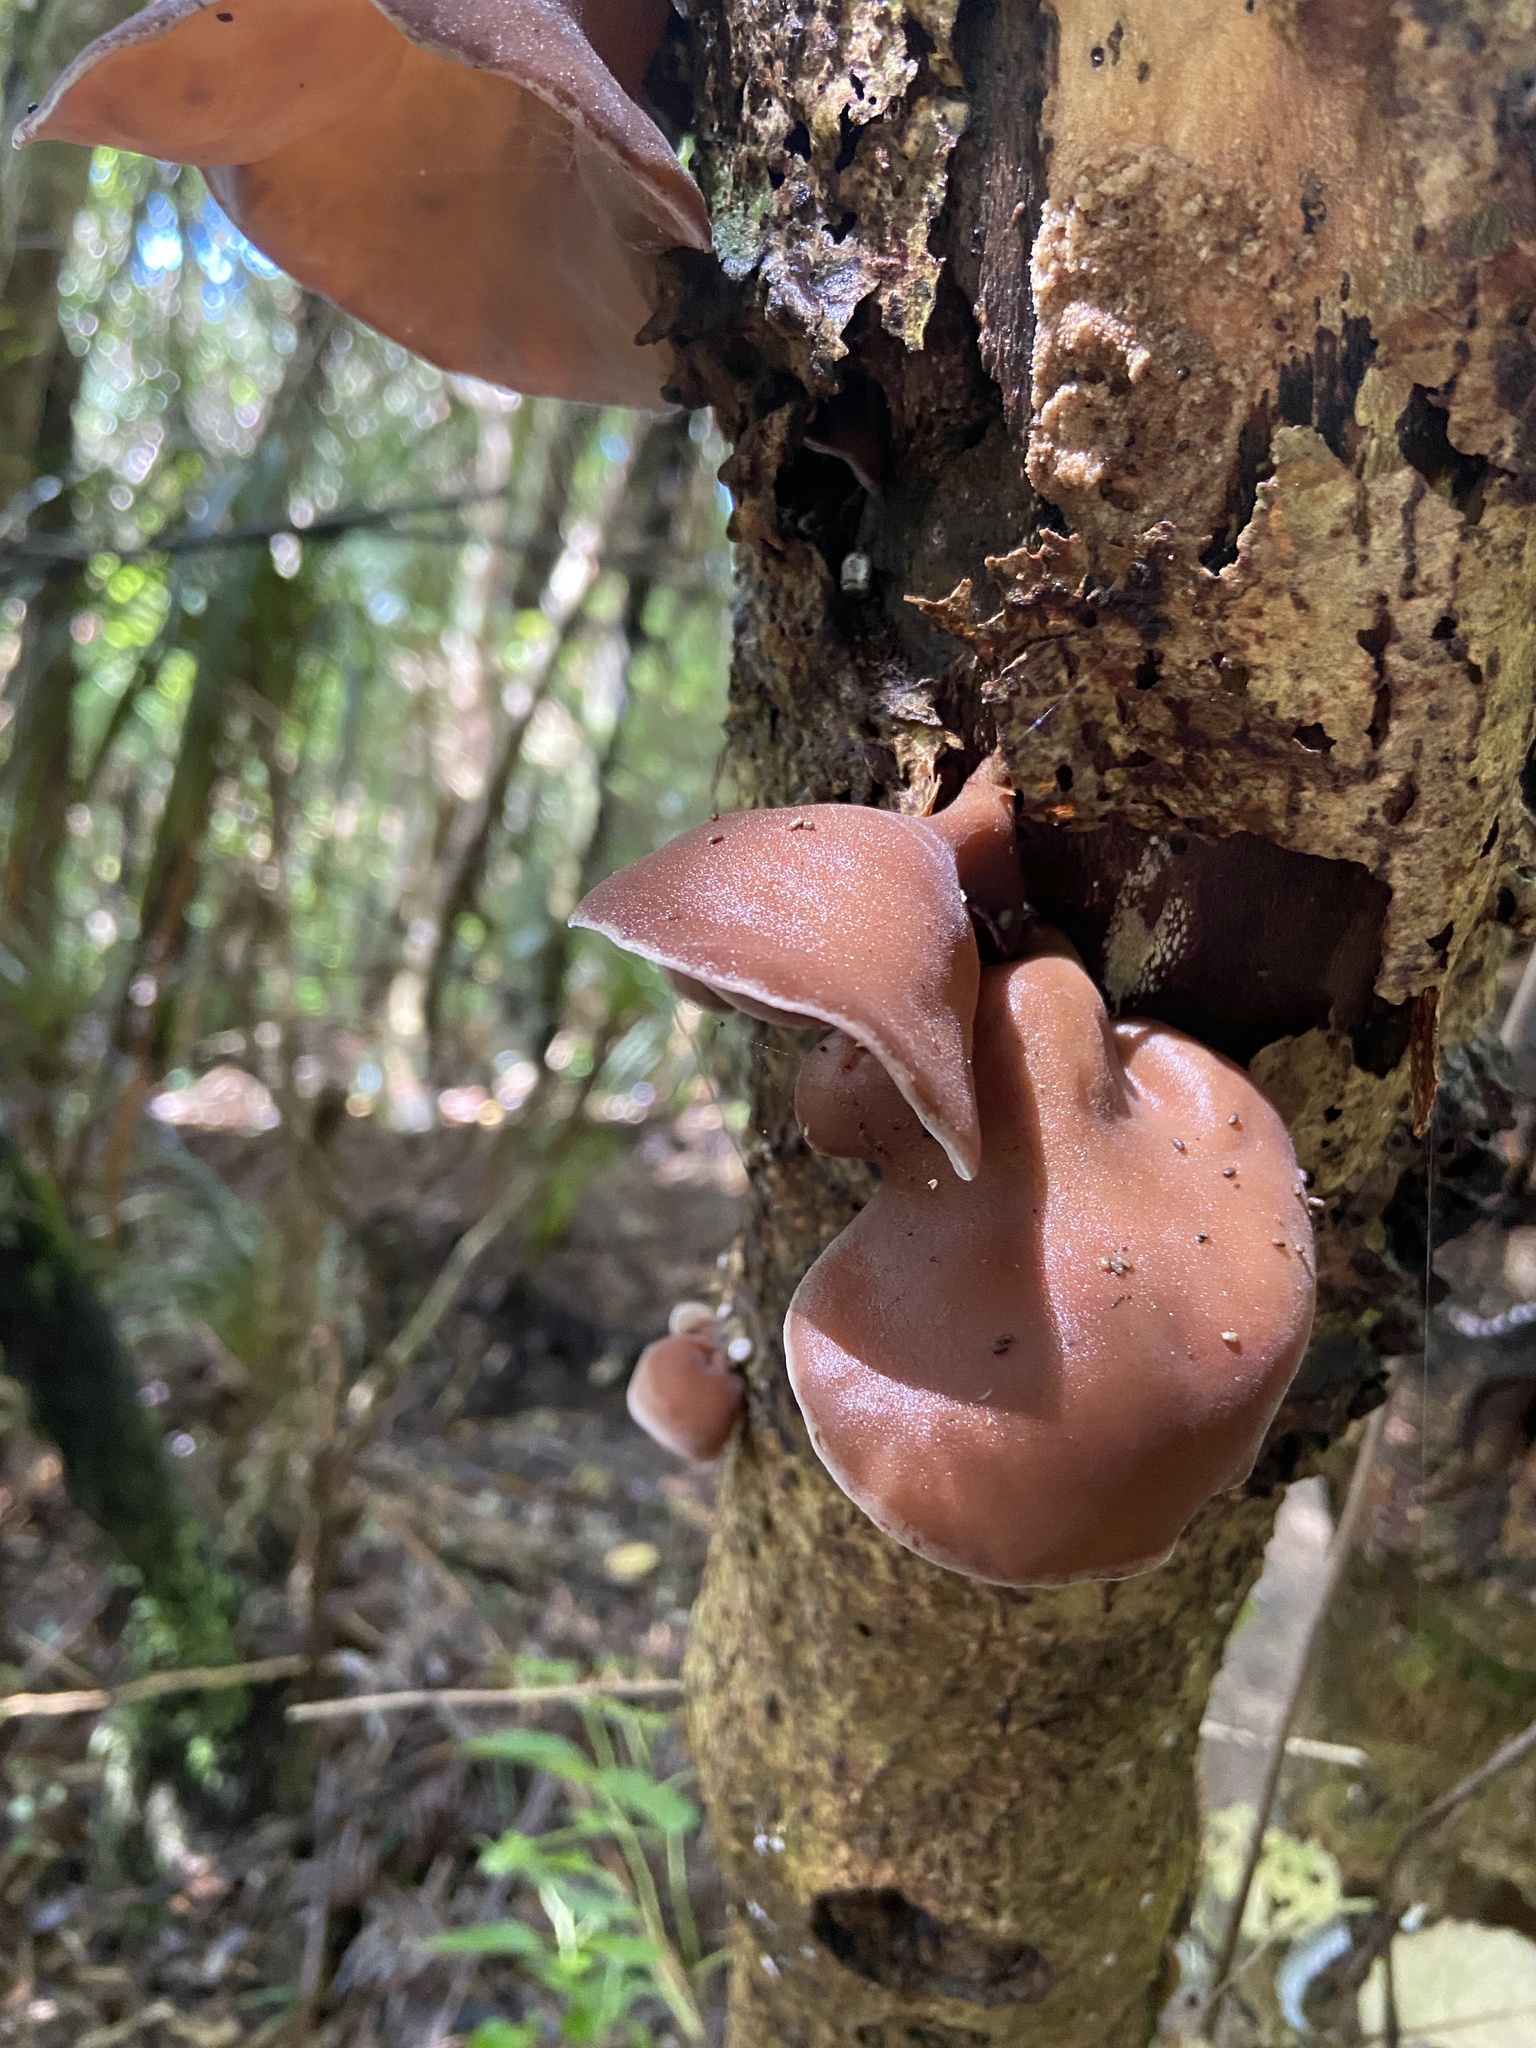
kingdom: Fungi
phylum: Basidiomycota
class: Agaricomycetes
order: Auriculariales
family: Auriculariaceae
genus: Auricularia
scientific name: Auricularia cornea
